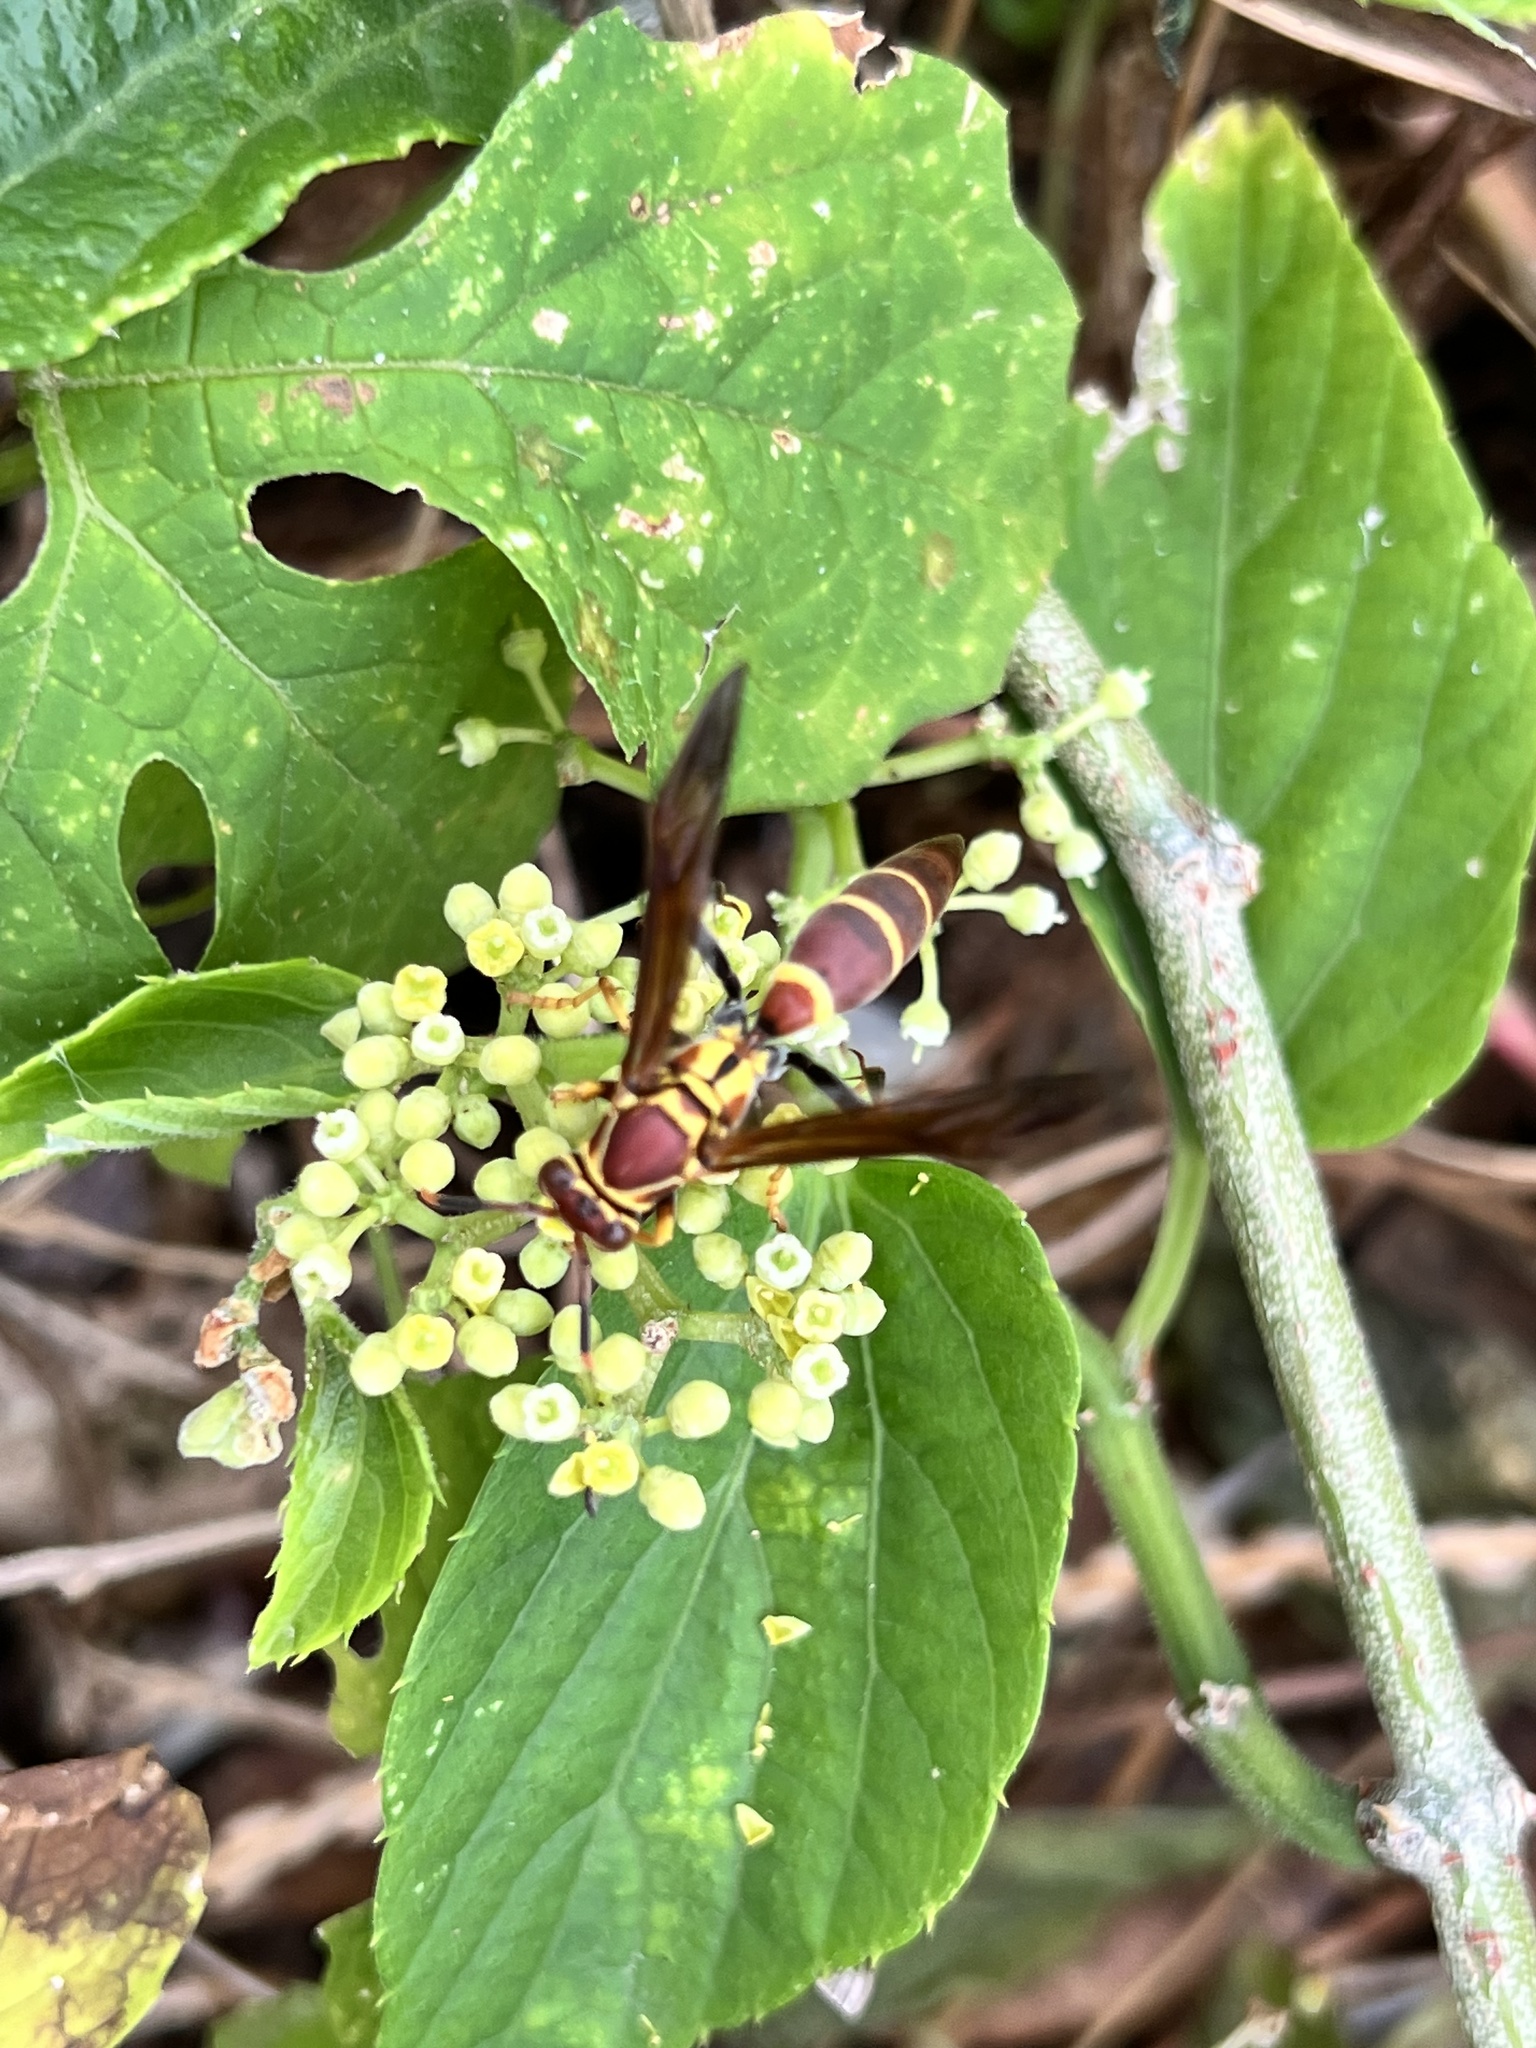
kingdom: Animalia
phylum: Arthropoda
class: Insecta
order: Hymenoptera
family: Eumenidae
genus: Polistes
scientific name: Polistes instabilis
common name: Unstable paper wasp
